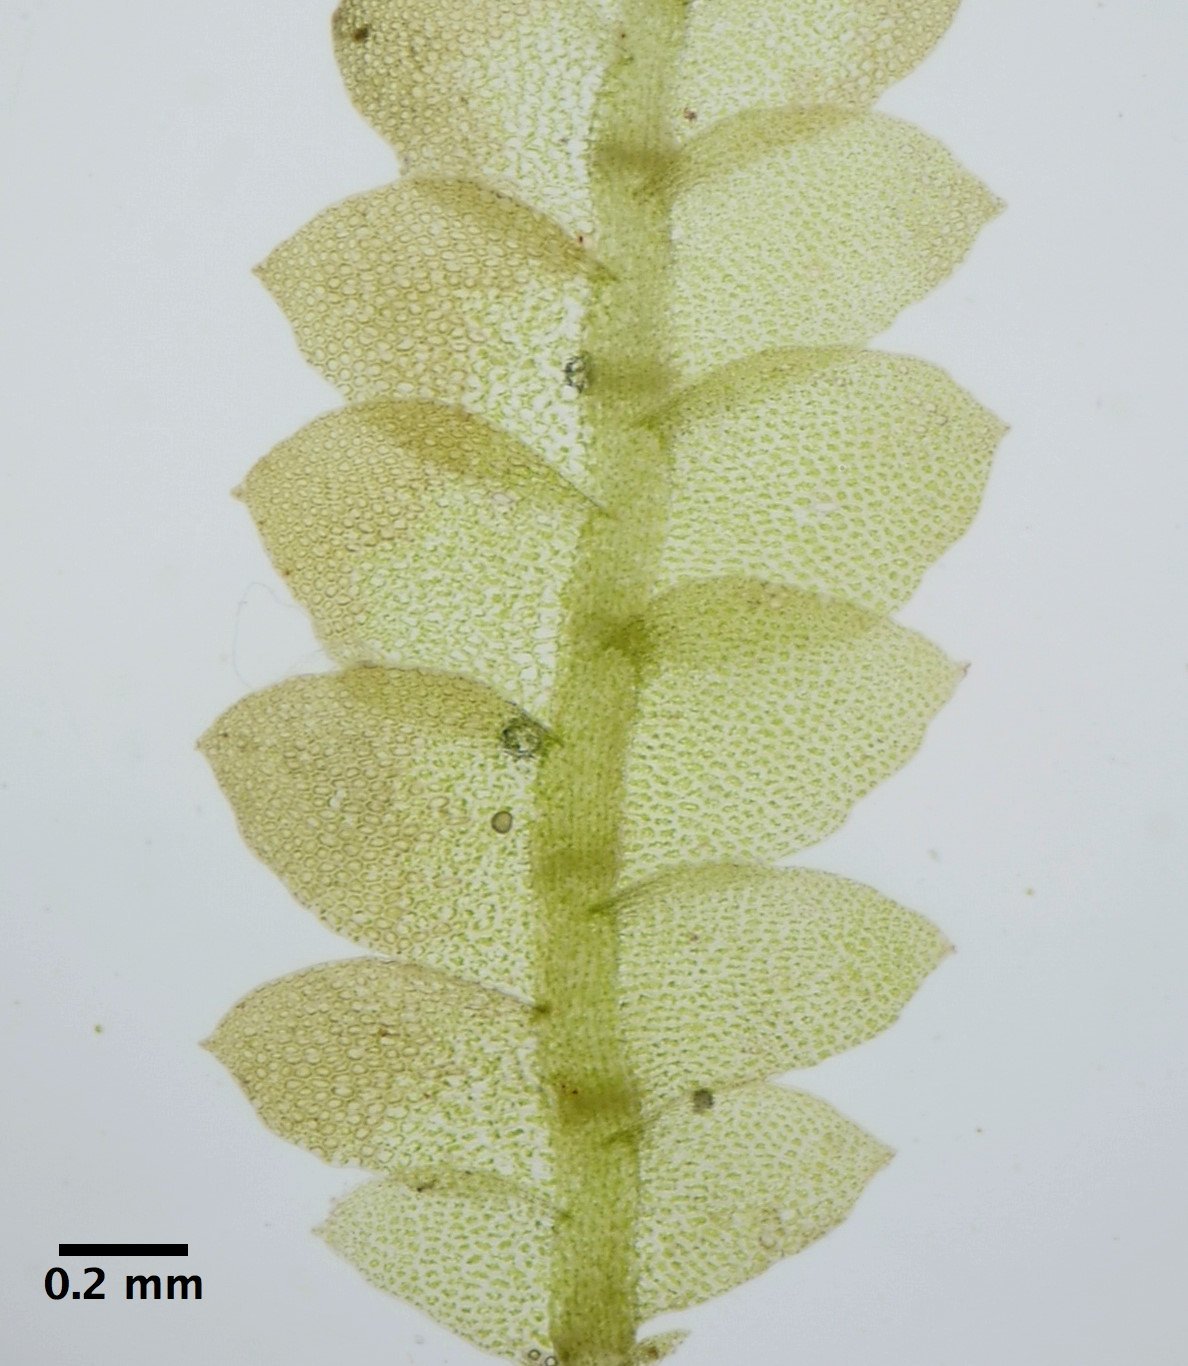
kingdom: Plantae
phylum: Marchantiophyta
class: Jungermanniopsida
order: Jungermanniales
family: Calypogeiaceae
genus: Calypogeia
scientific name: Calypogeia neogaea
